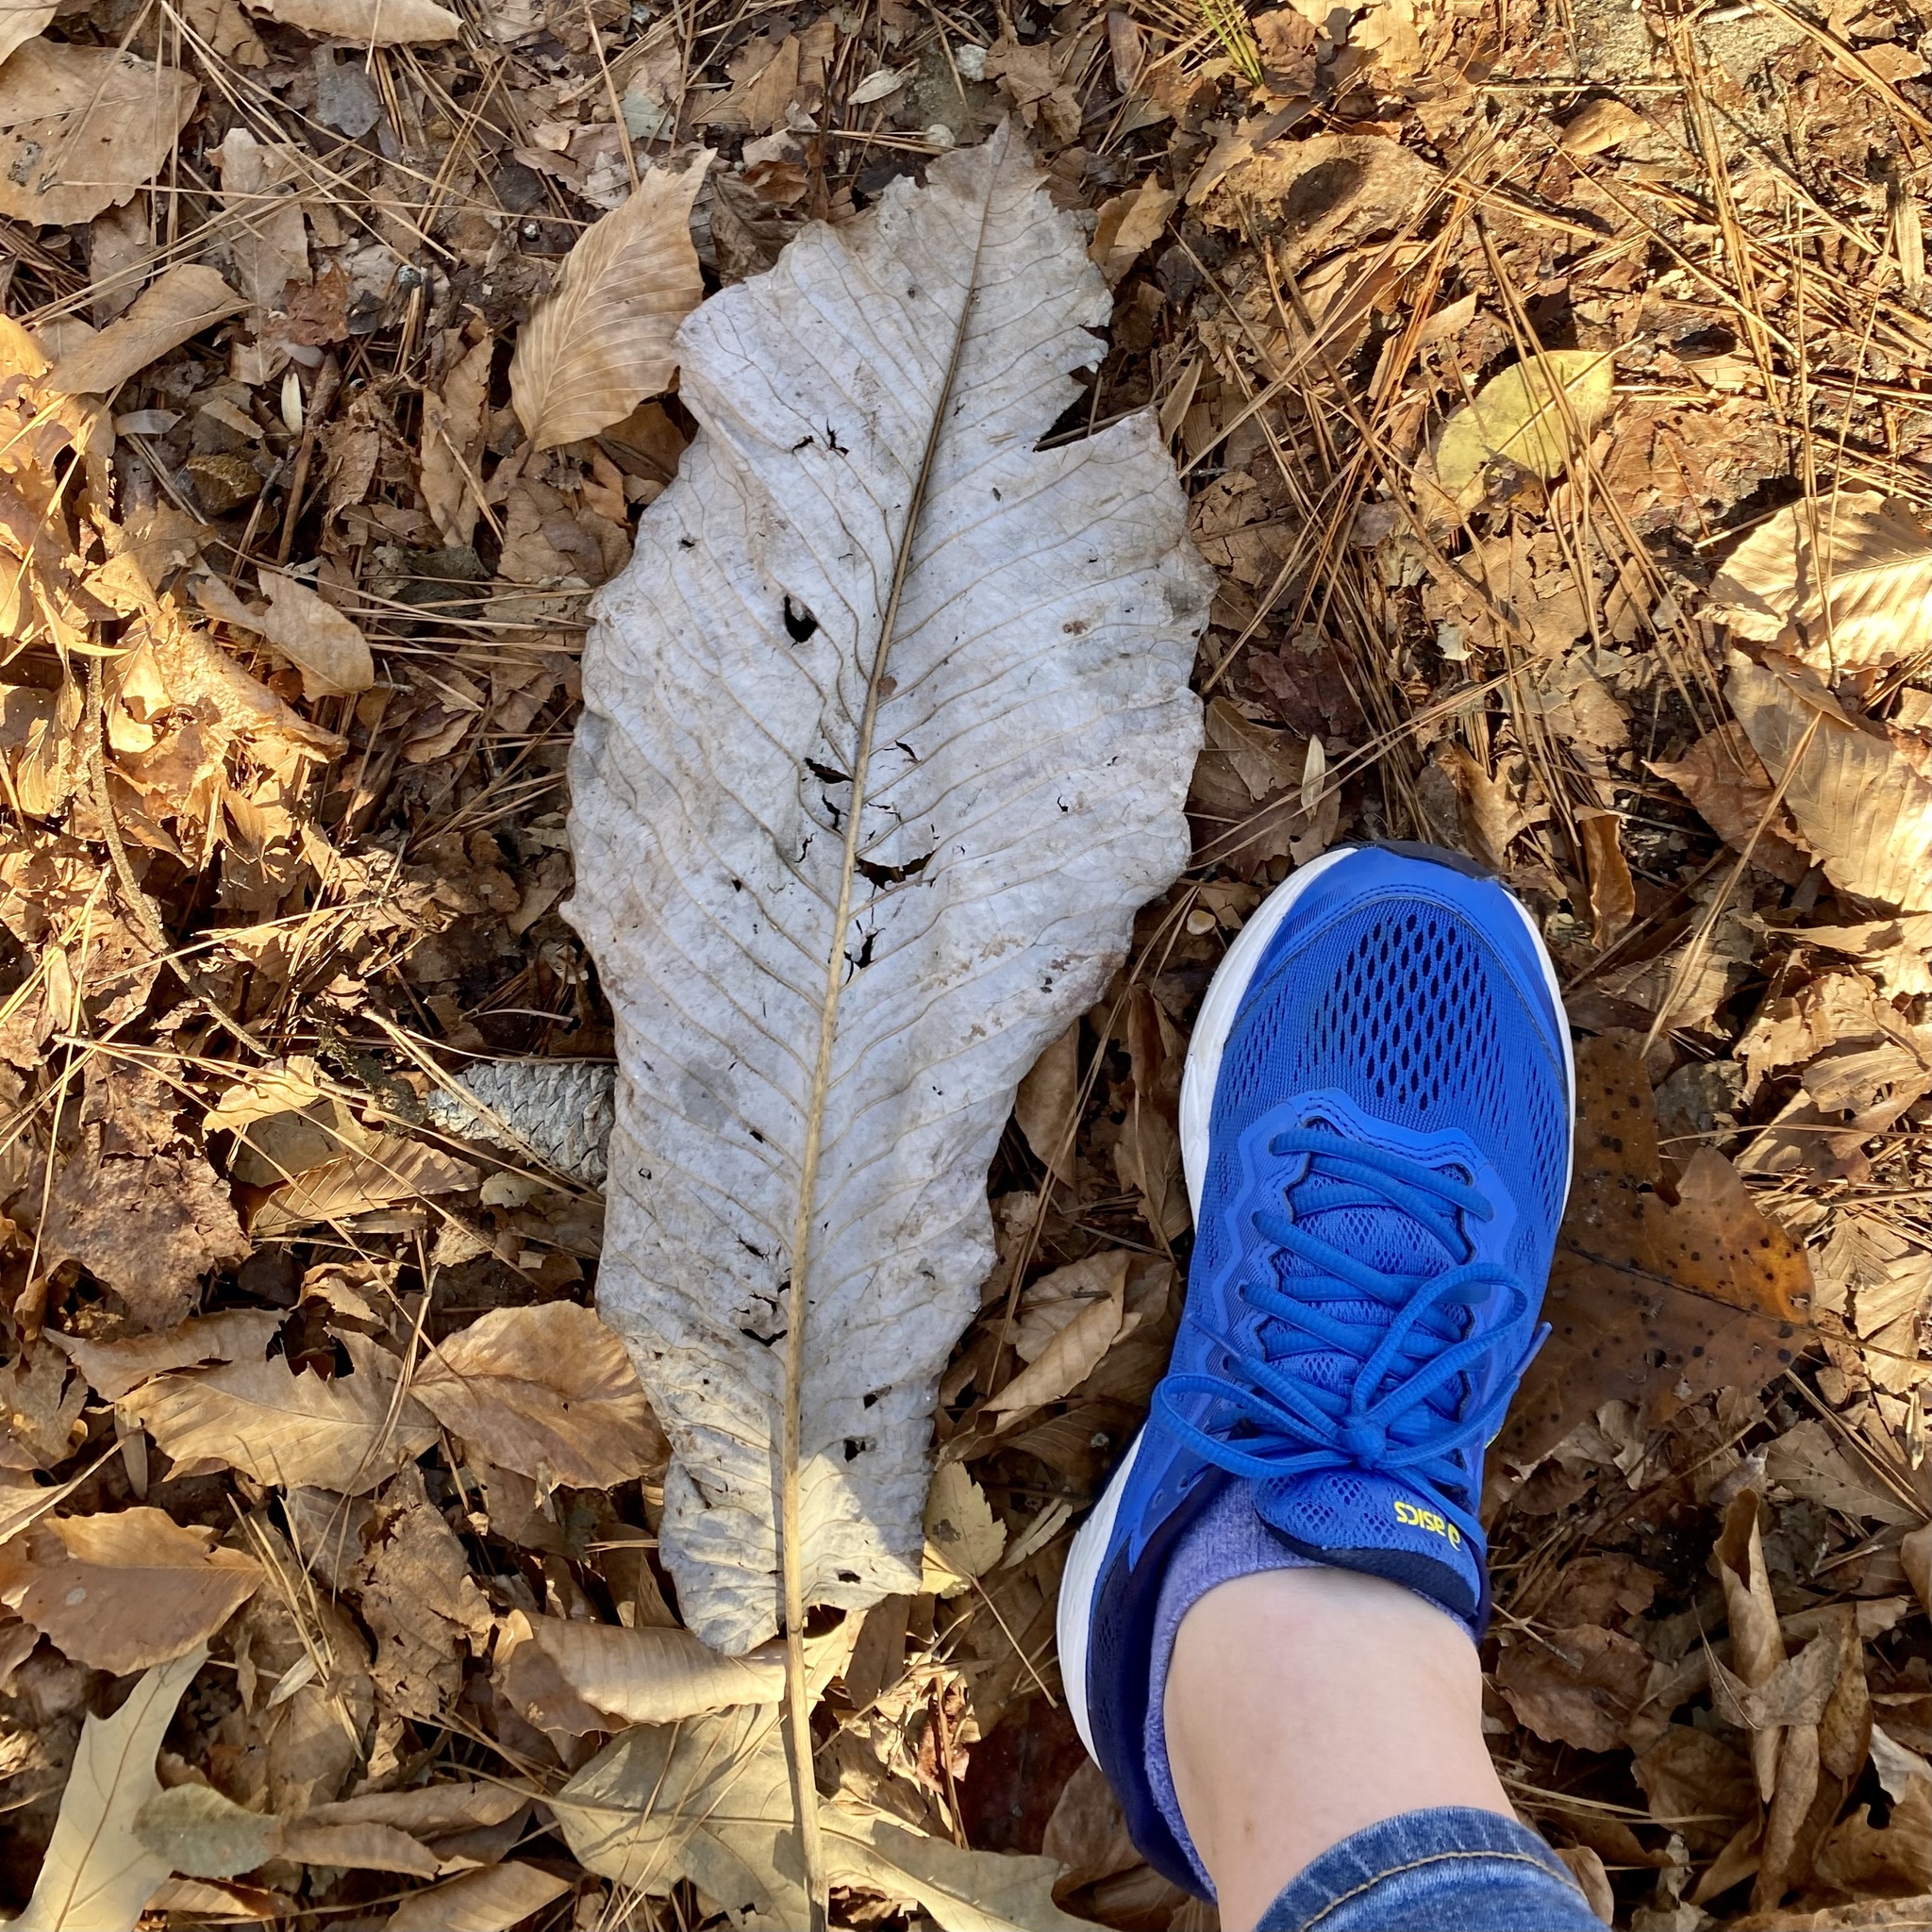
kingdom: Plantae
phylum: Tracheophyta
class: Magnoliopsida
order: Magnoliales
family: Magnoliaceae
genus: Magnolia
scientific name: Magnolia macrophylla
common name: Big-leaf magnolia
